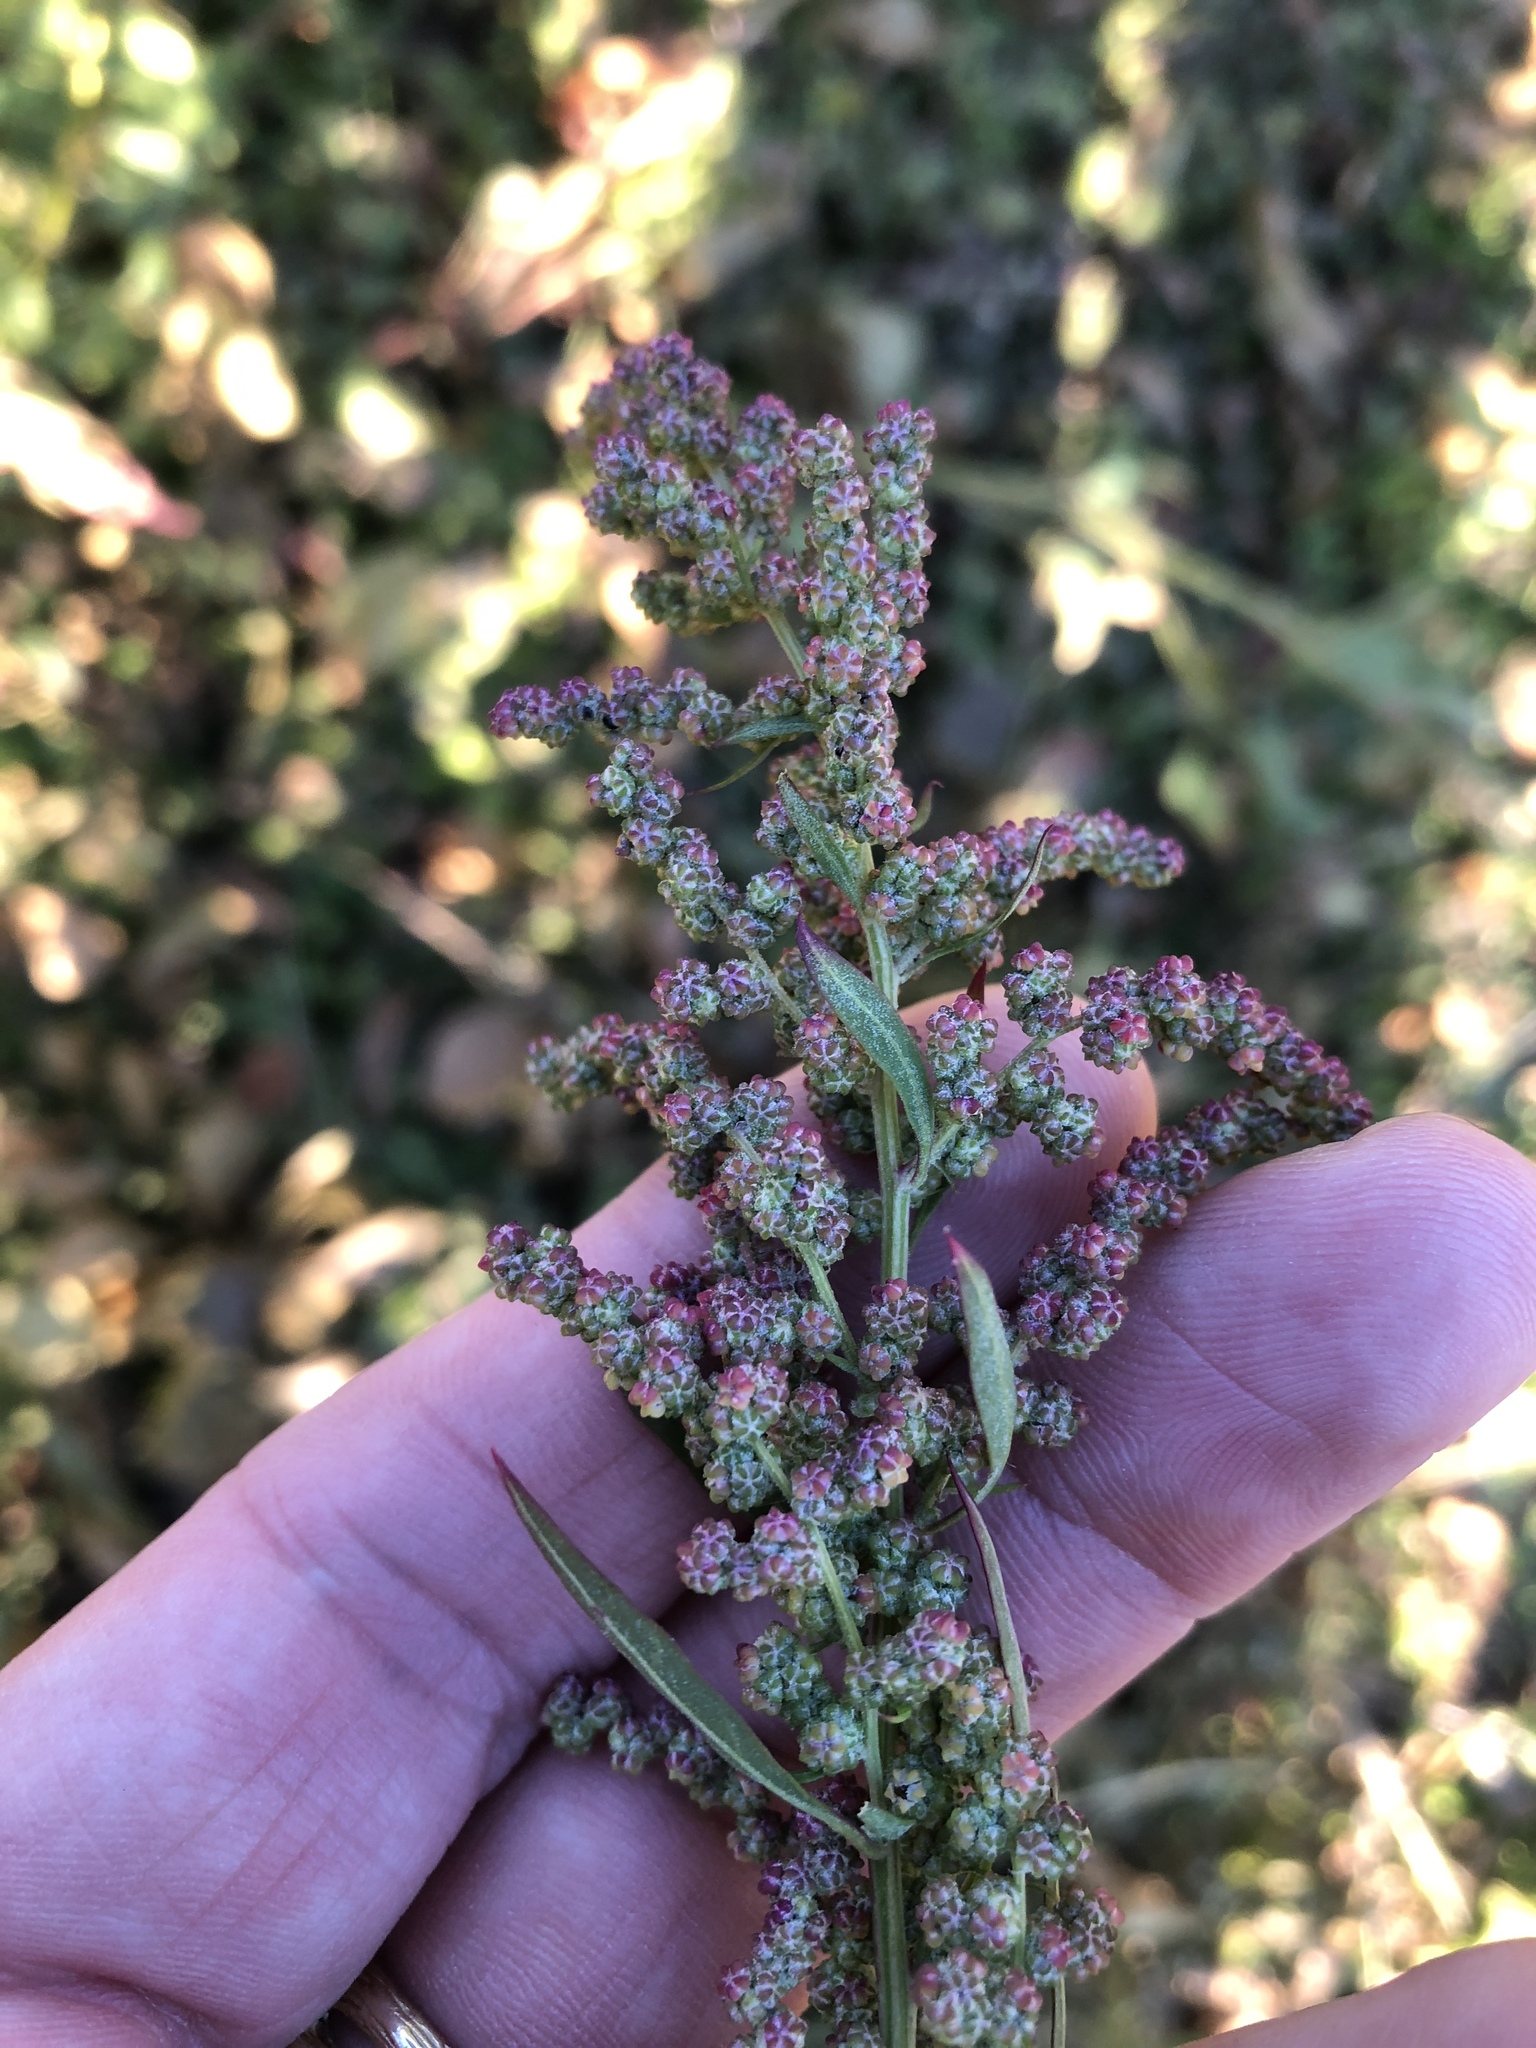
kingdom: Plantae
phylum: Tracheophyta
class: Magnoliopsida
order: Caryophyllales
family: Amaranthaceae
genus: Chenopodium
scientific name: Chenopodium album
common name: Fat-hen
